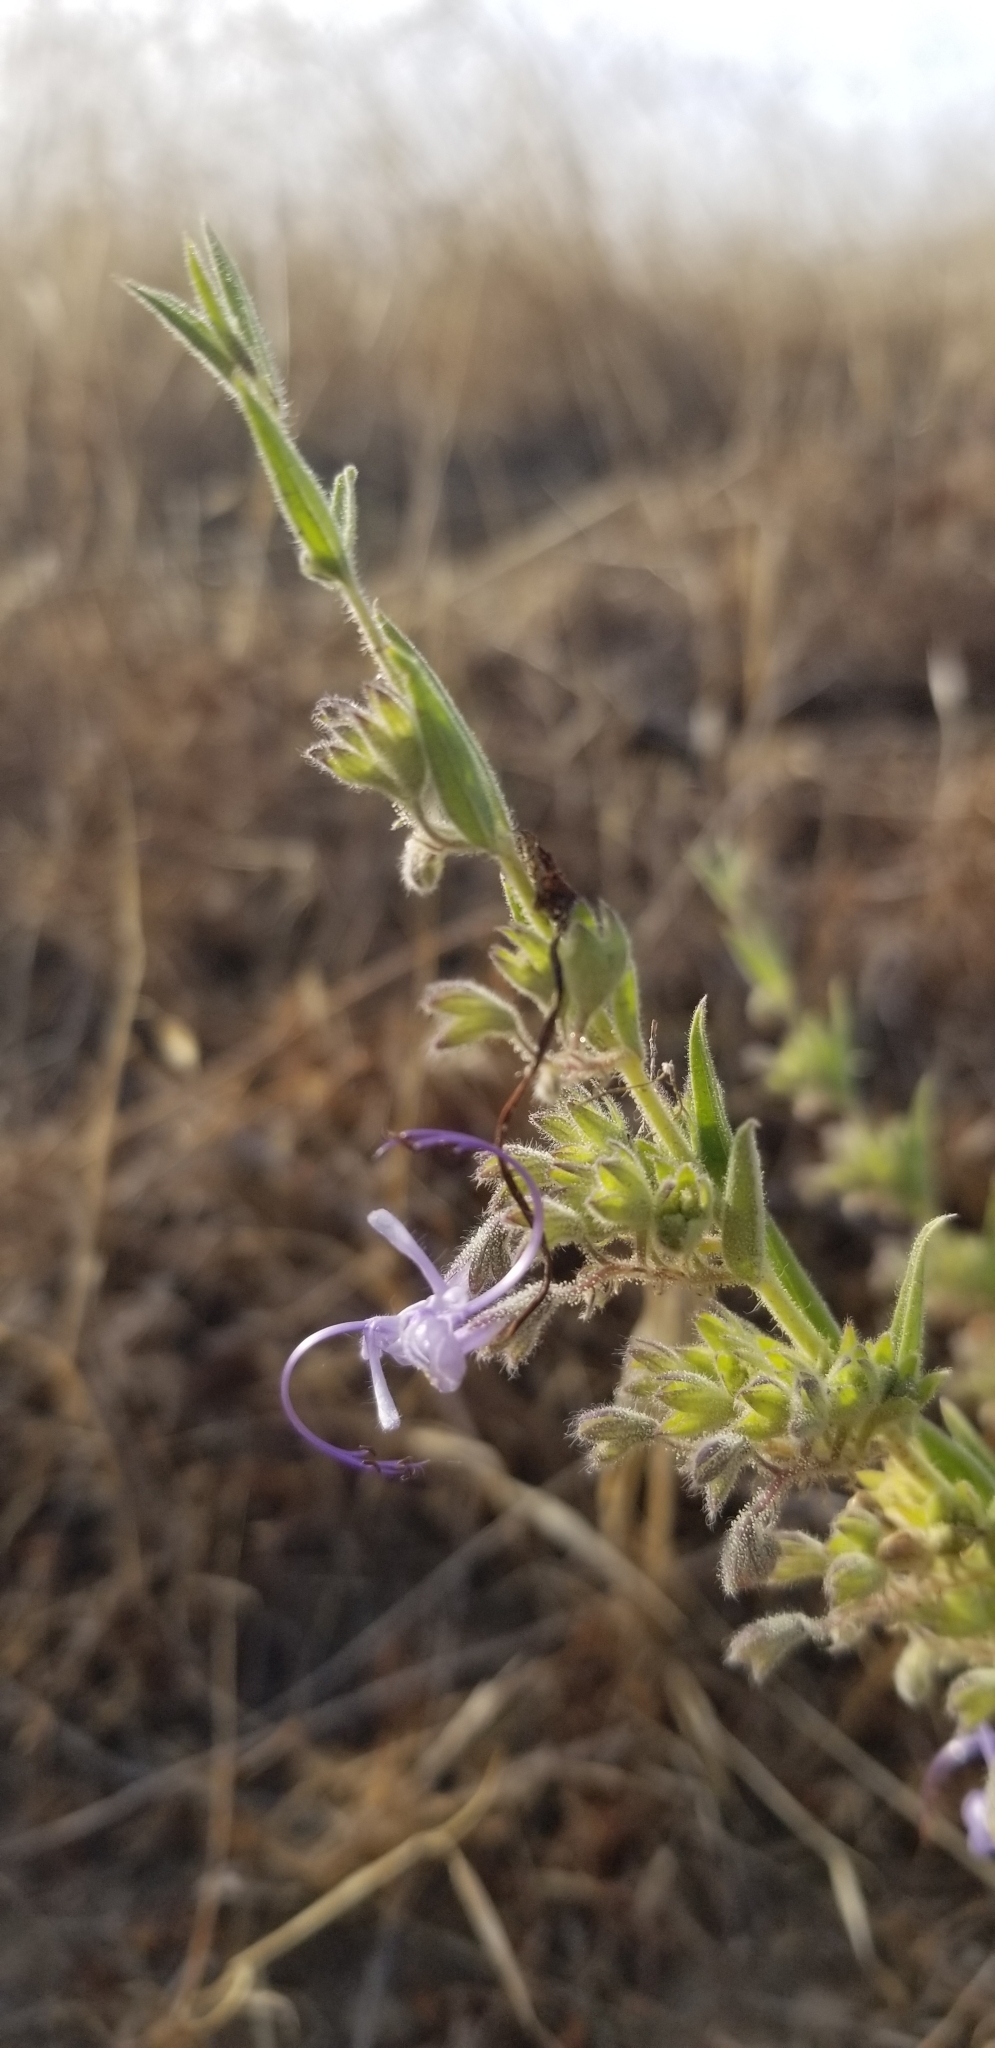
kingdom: Plantae
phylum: Tracheophyta
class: Magnoliopsida
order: Lamiales
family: Lamiaceae
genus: Trichostema
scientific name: Trichostema lanceolatum
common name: Vinegar-weed
